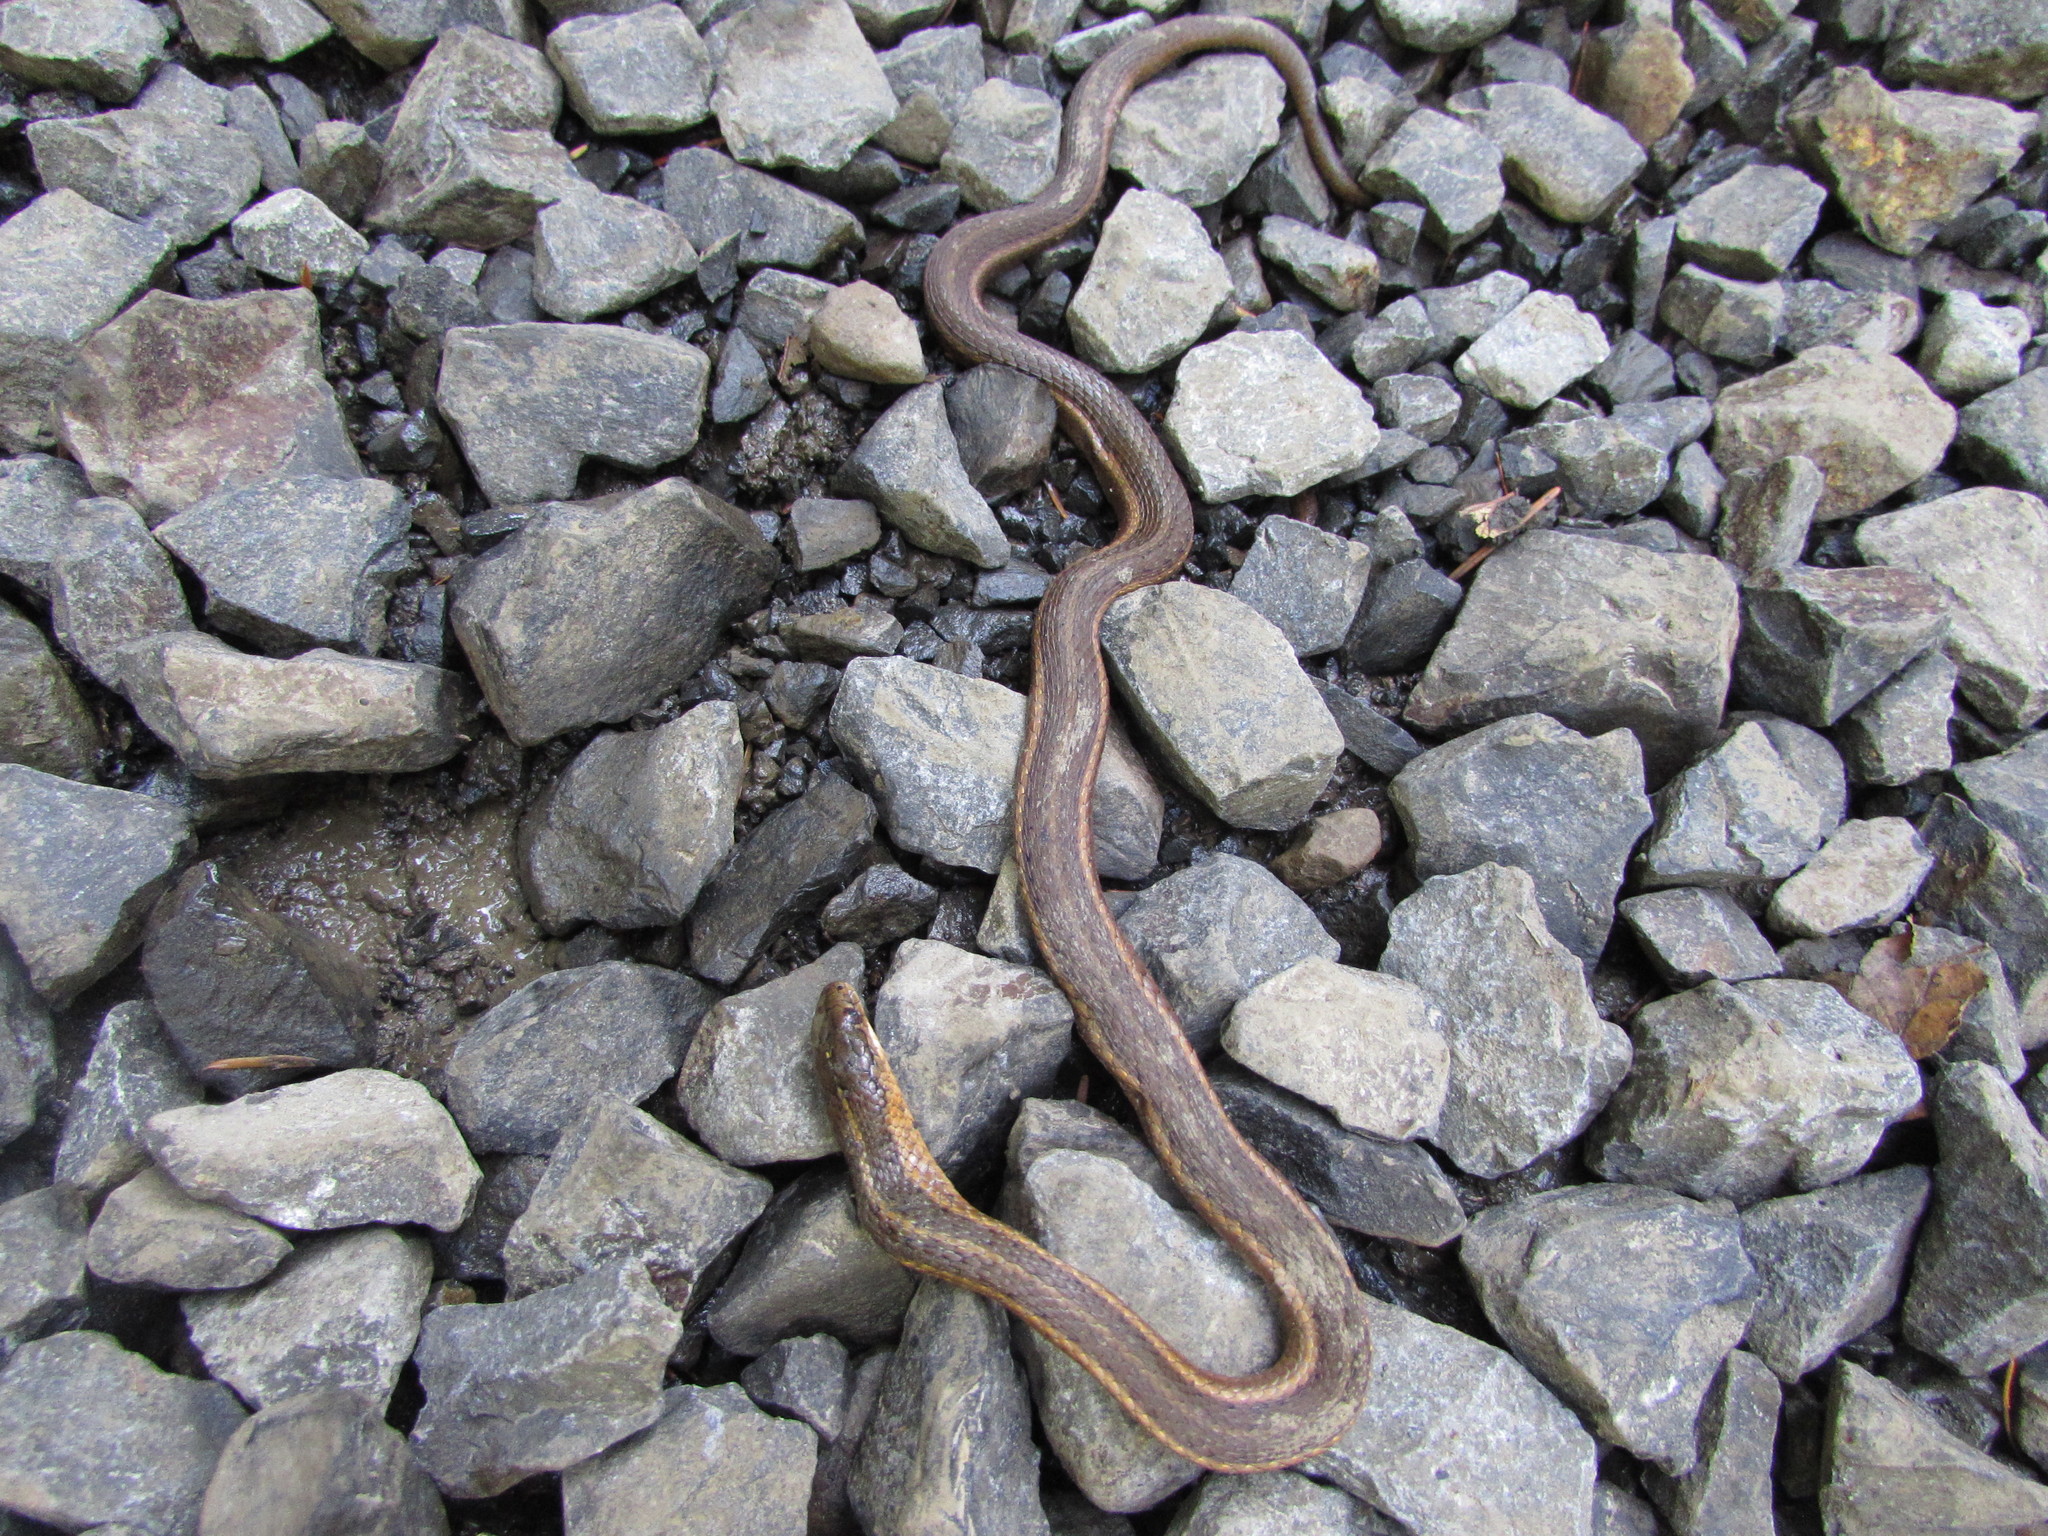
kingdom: Animalia
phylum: Chordata
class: Squamata
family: Colubridae
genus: Thamnophis
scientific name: Thamnophis ordinoides
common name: Northwestern garter snake
